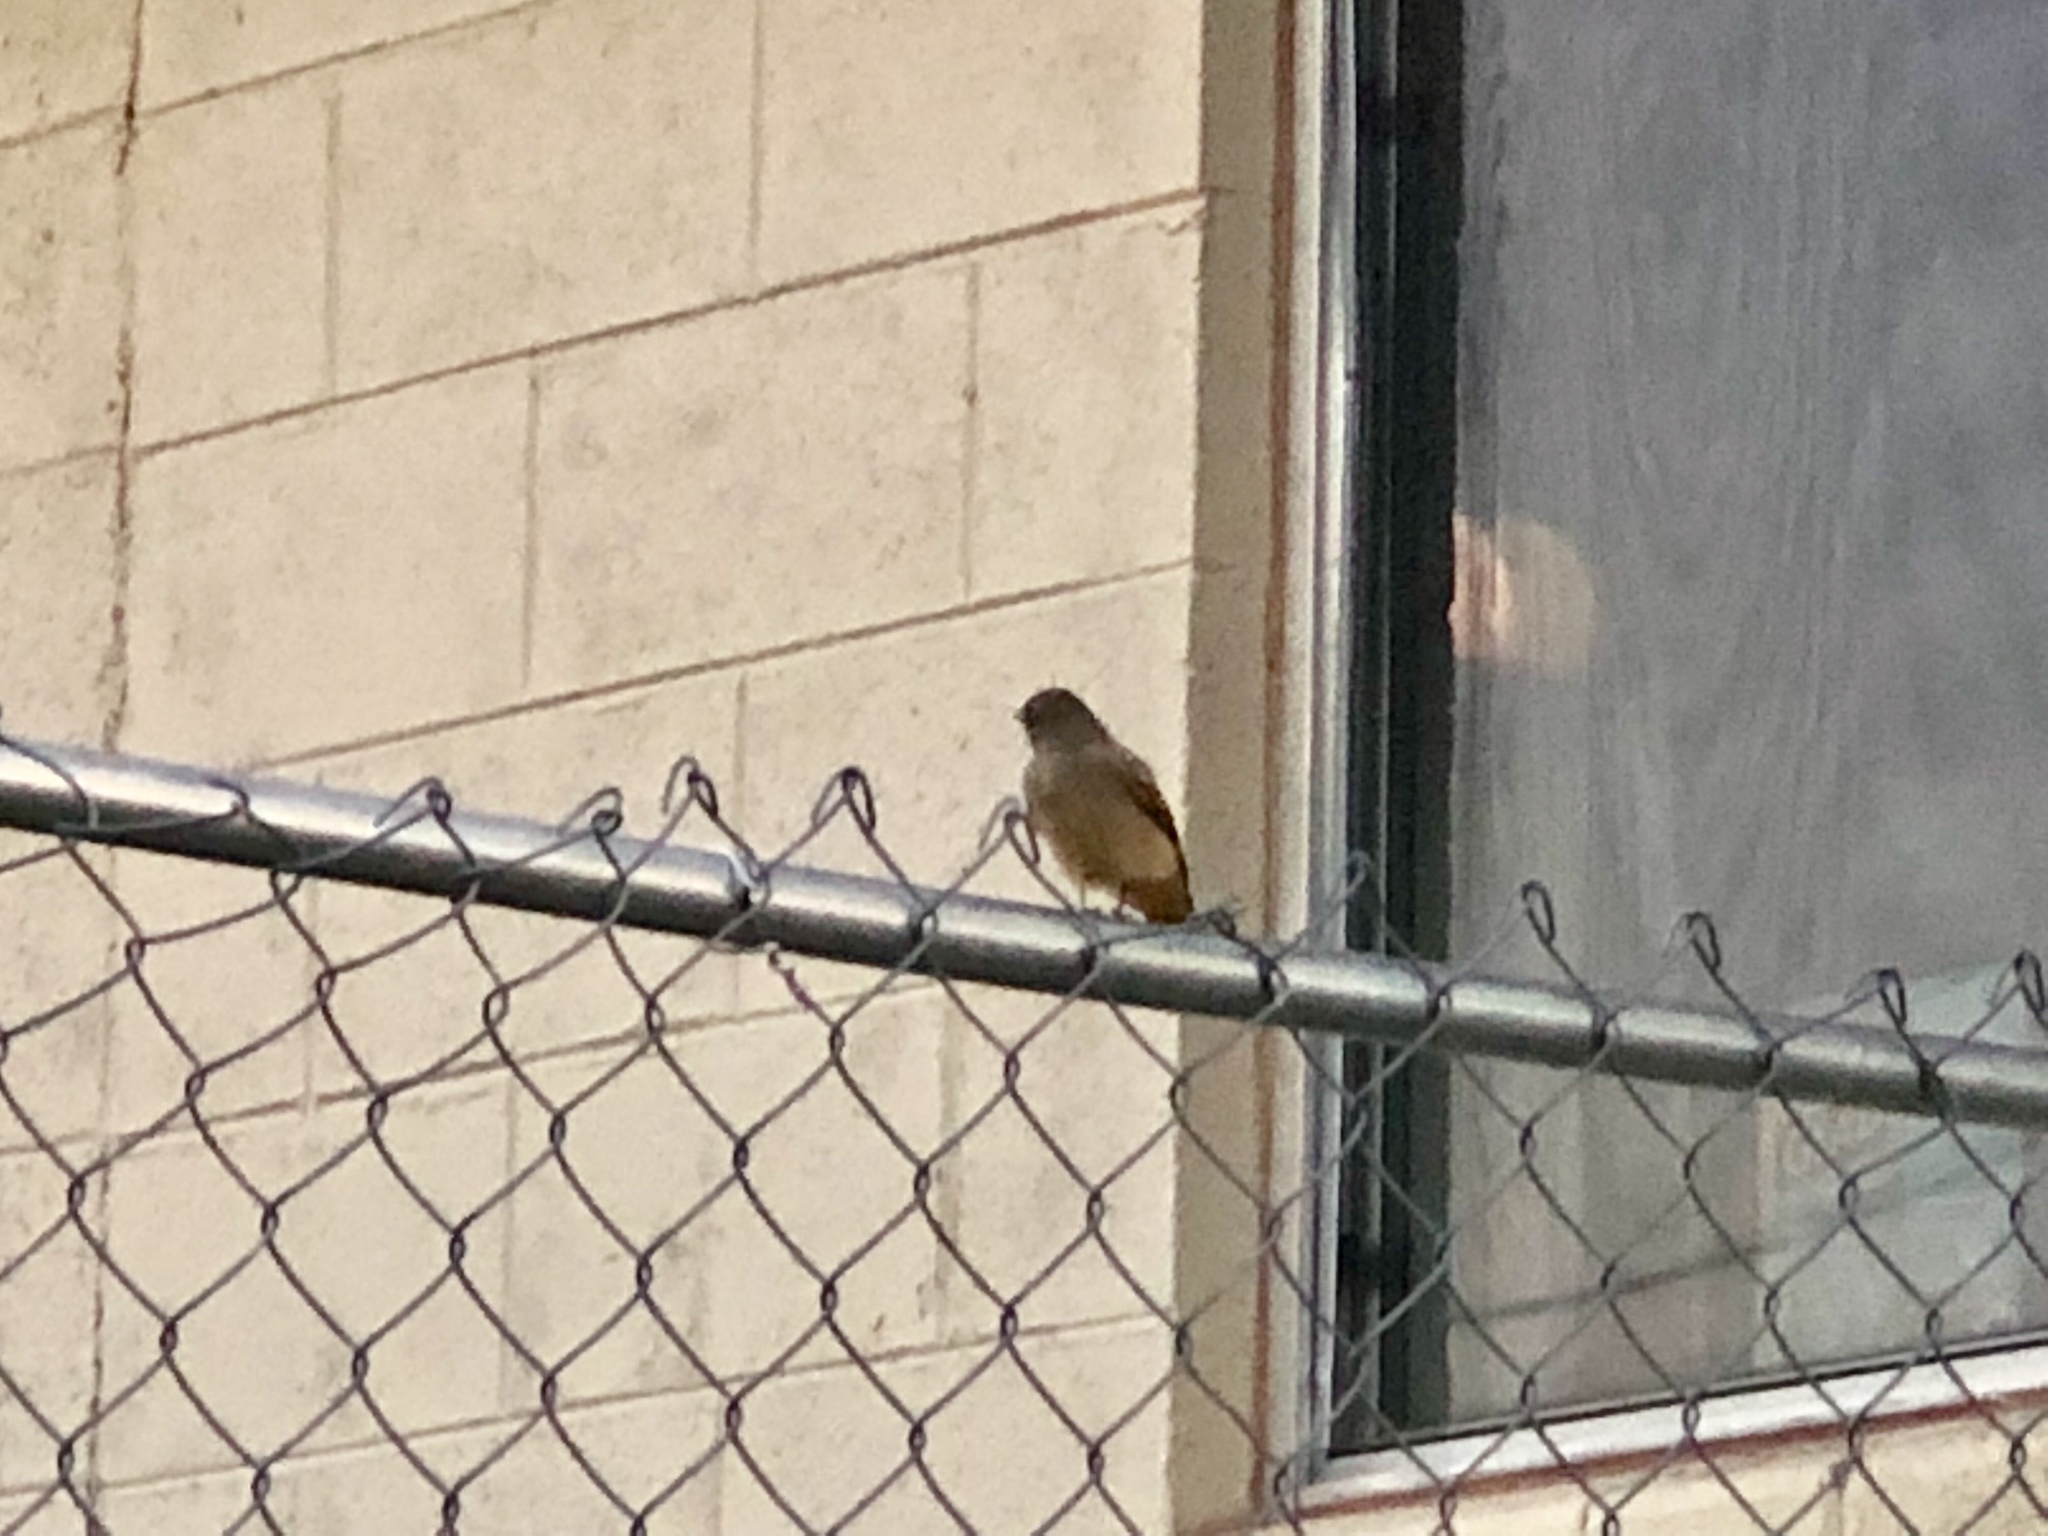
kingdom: Animalia
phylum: Chordata
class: Aves
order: Passeriformes
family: Tyrannidae
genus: Sayornis
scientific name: Sayornis saya
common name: Say's phoebe
